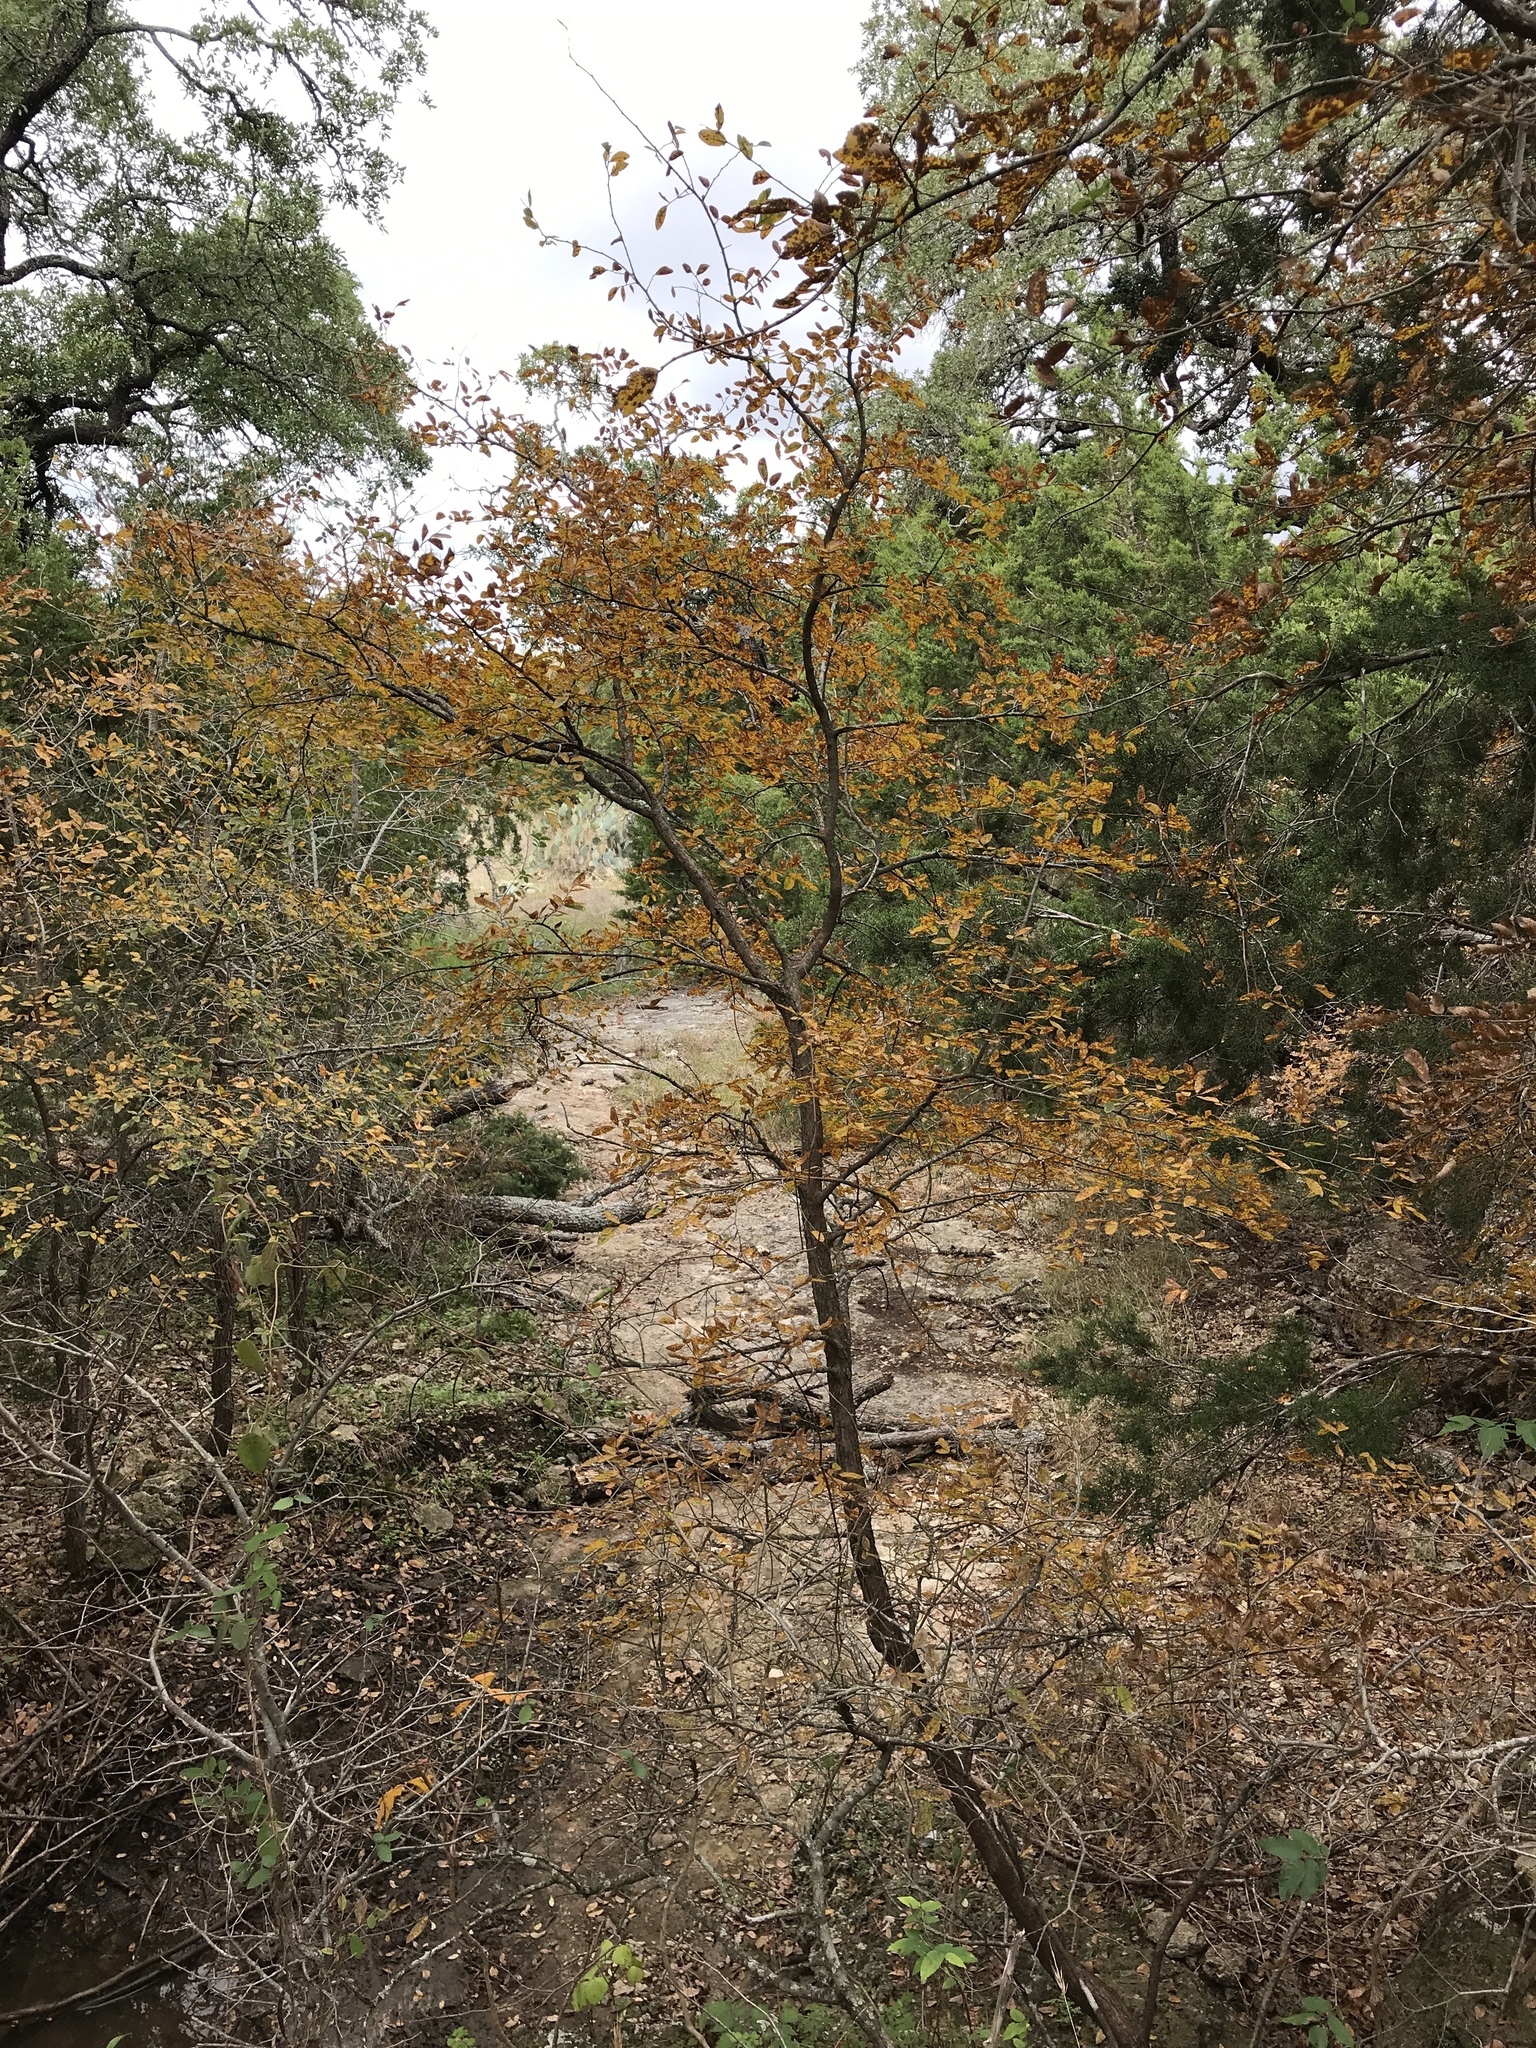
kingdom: Plantae
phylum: Tracheophyta
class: Magnoliopsida
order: Rosales
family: Ulmaceae
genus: Ulmus
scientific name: Ulmus crassifolia
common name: Basket elm
